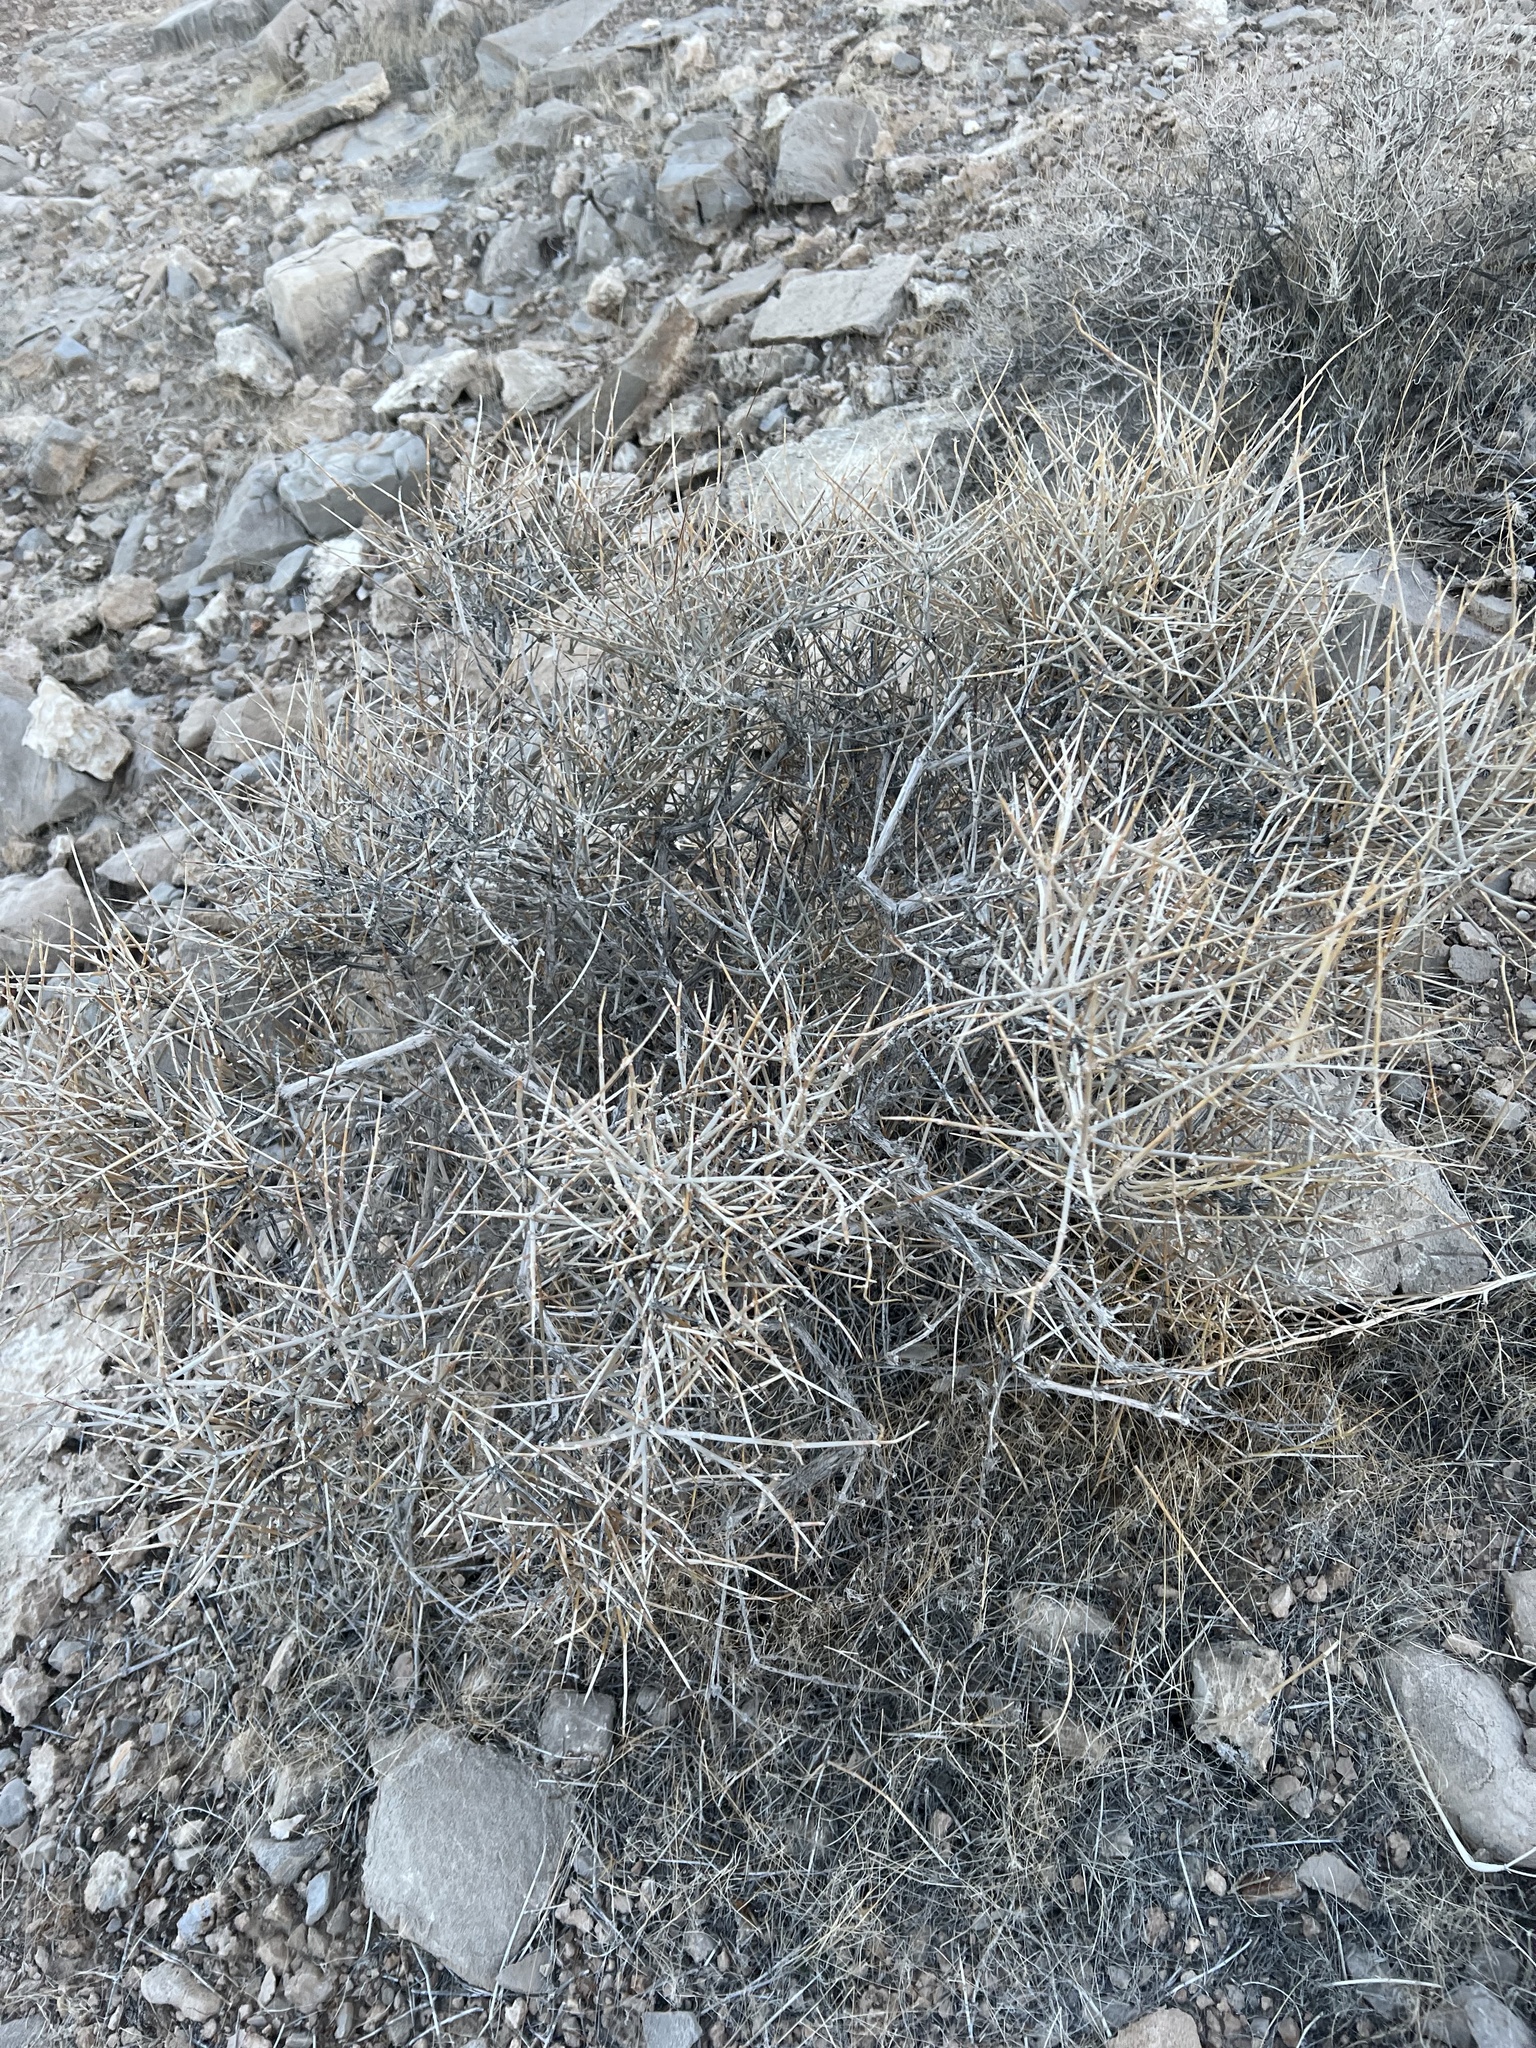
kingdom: Plantae
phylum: Tracheophyta
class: Gnetopsida
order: Ephedrales
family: Ephedraceae
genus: Ephedra
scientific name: Ephedra nevadensis
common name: Gray ephedra
